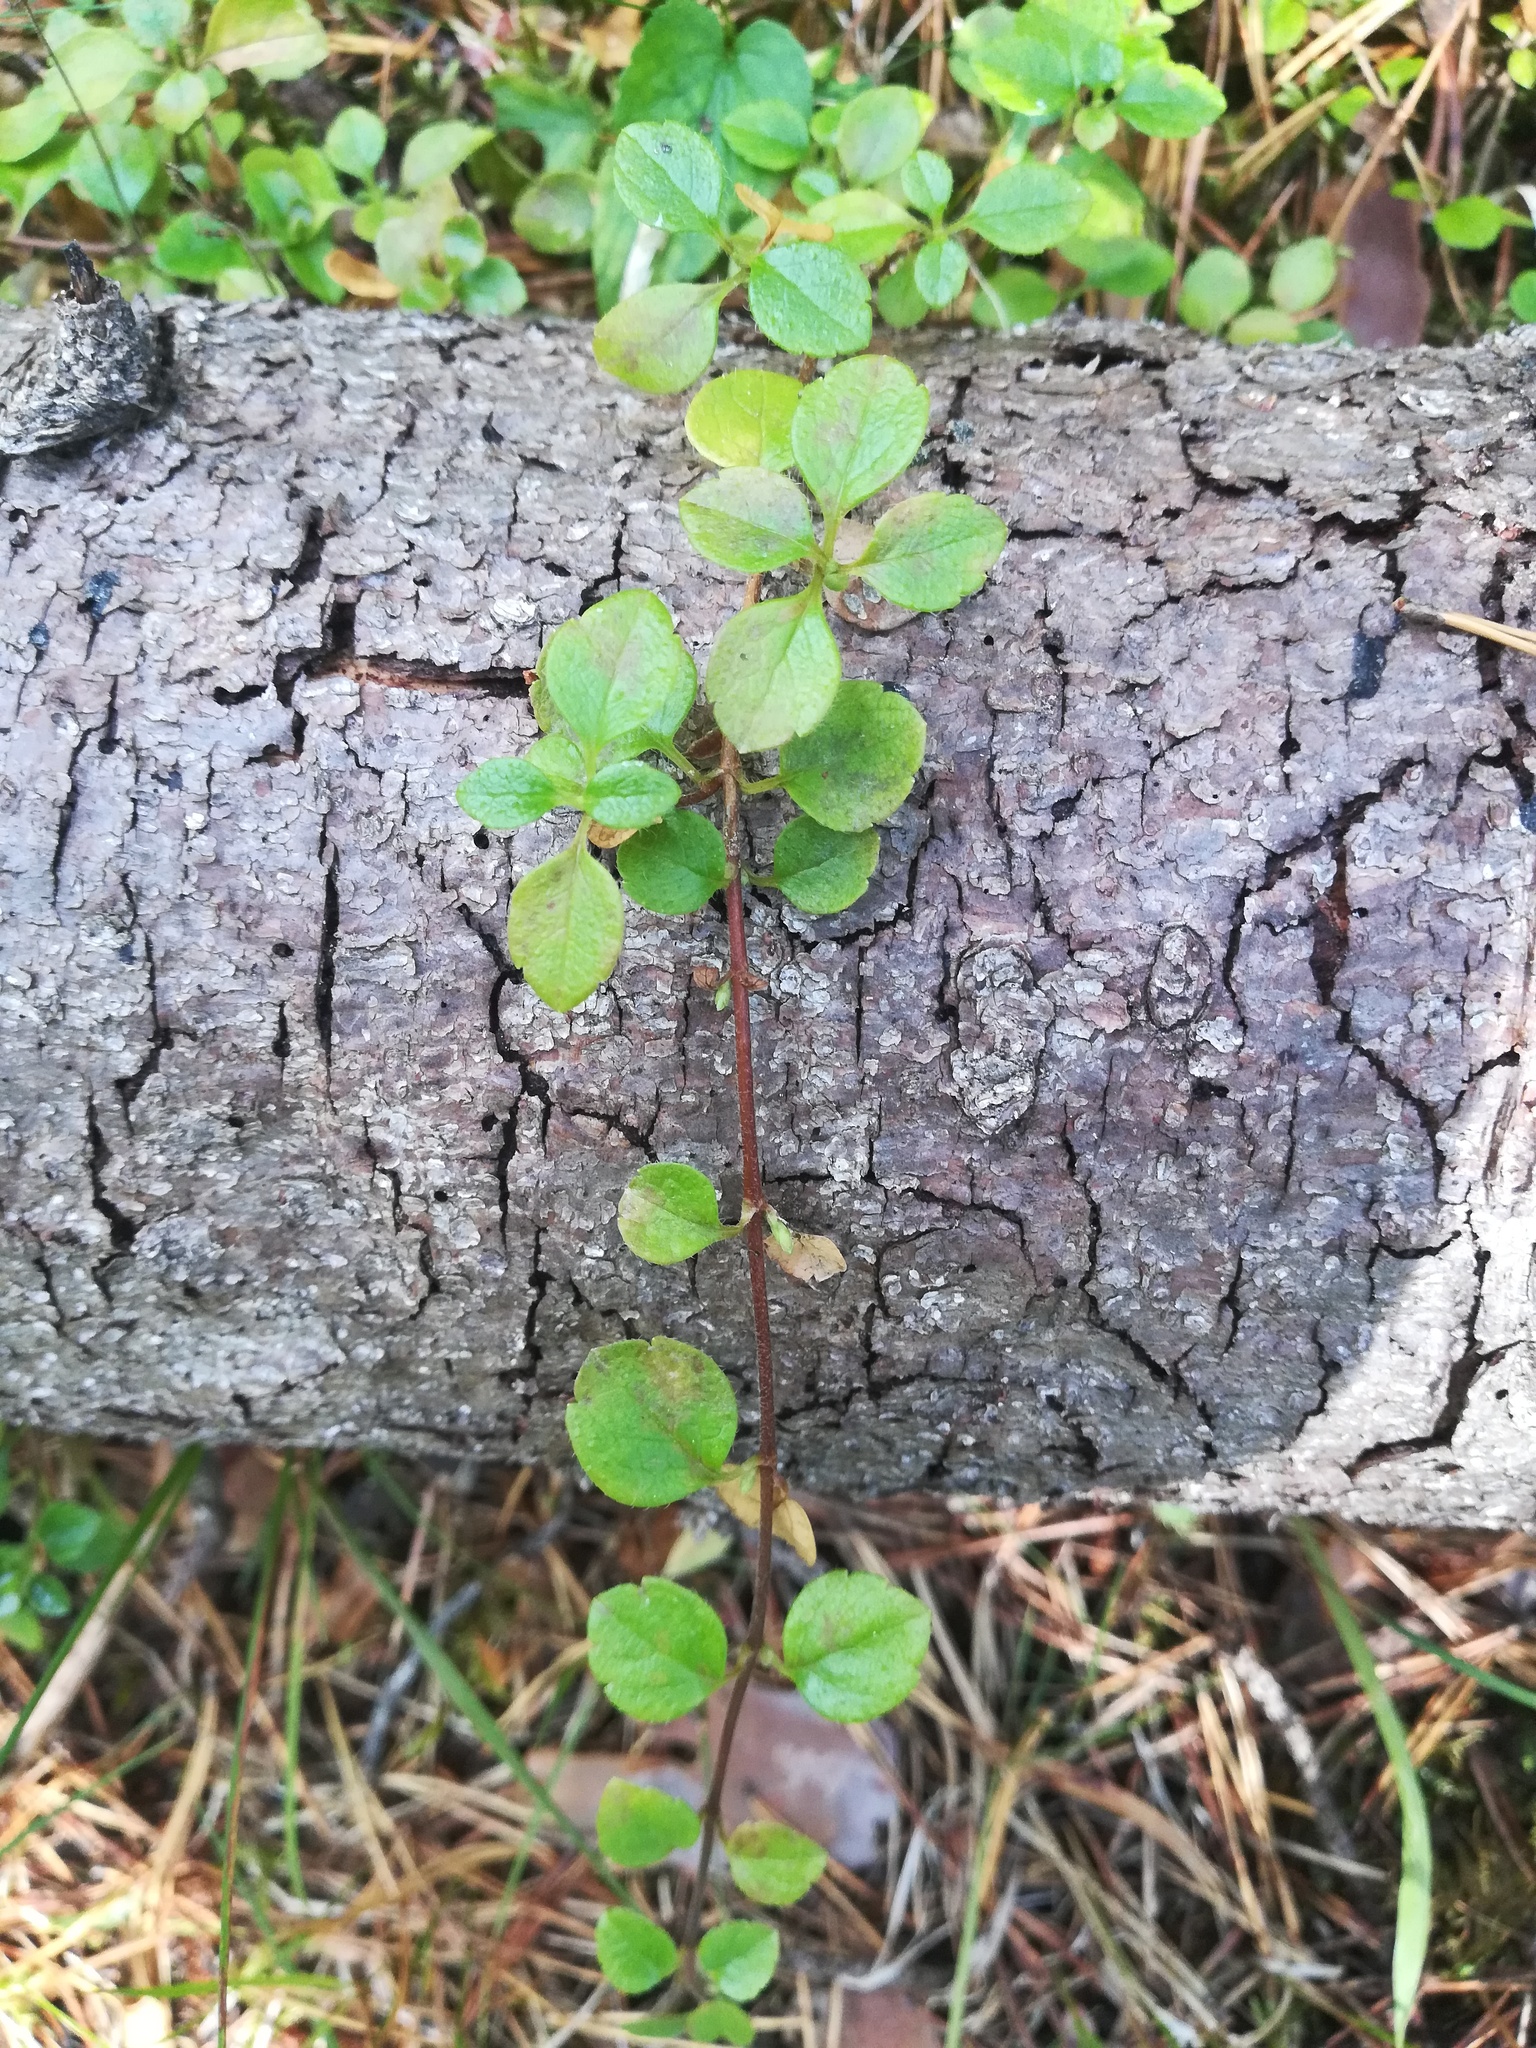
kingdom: Plantae
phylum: Tracheophyta
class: Magnoliopsida
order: Dipsacales
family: Caprifoliaceae
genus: Linnaea
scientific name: Linnaea borealis
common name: Twinflower
